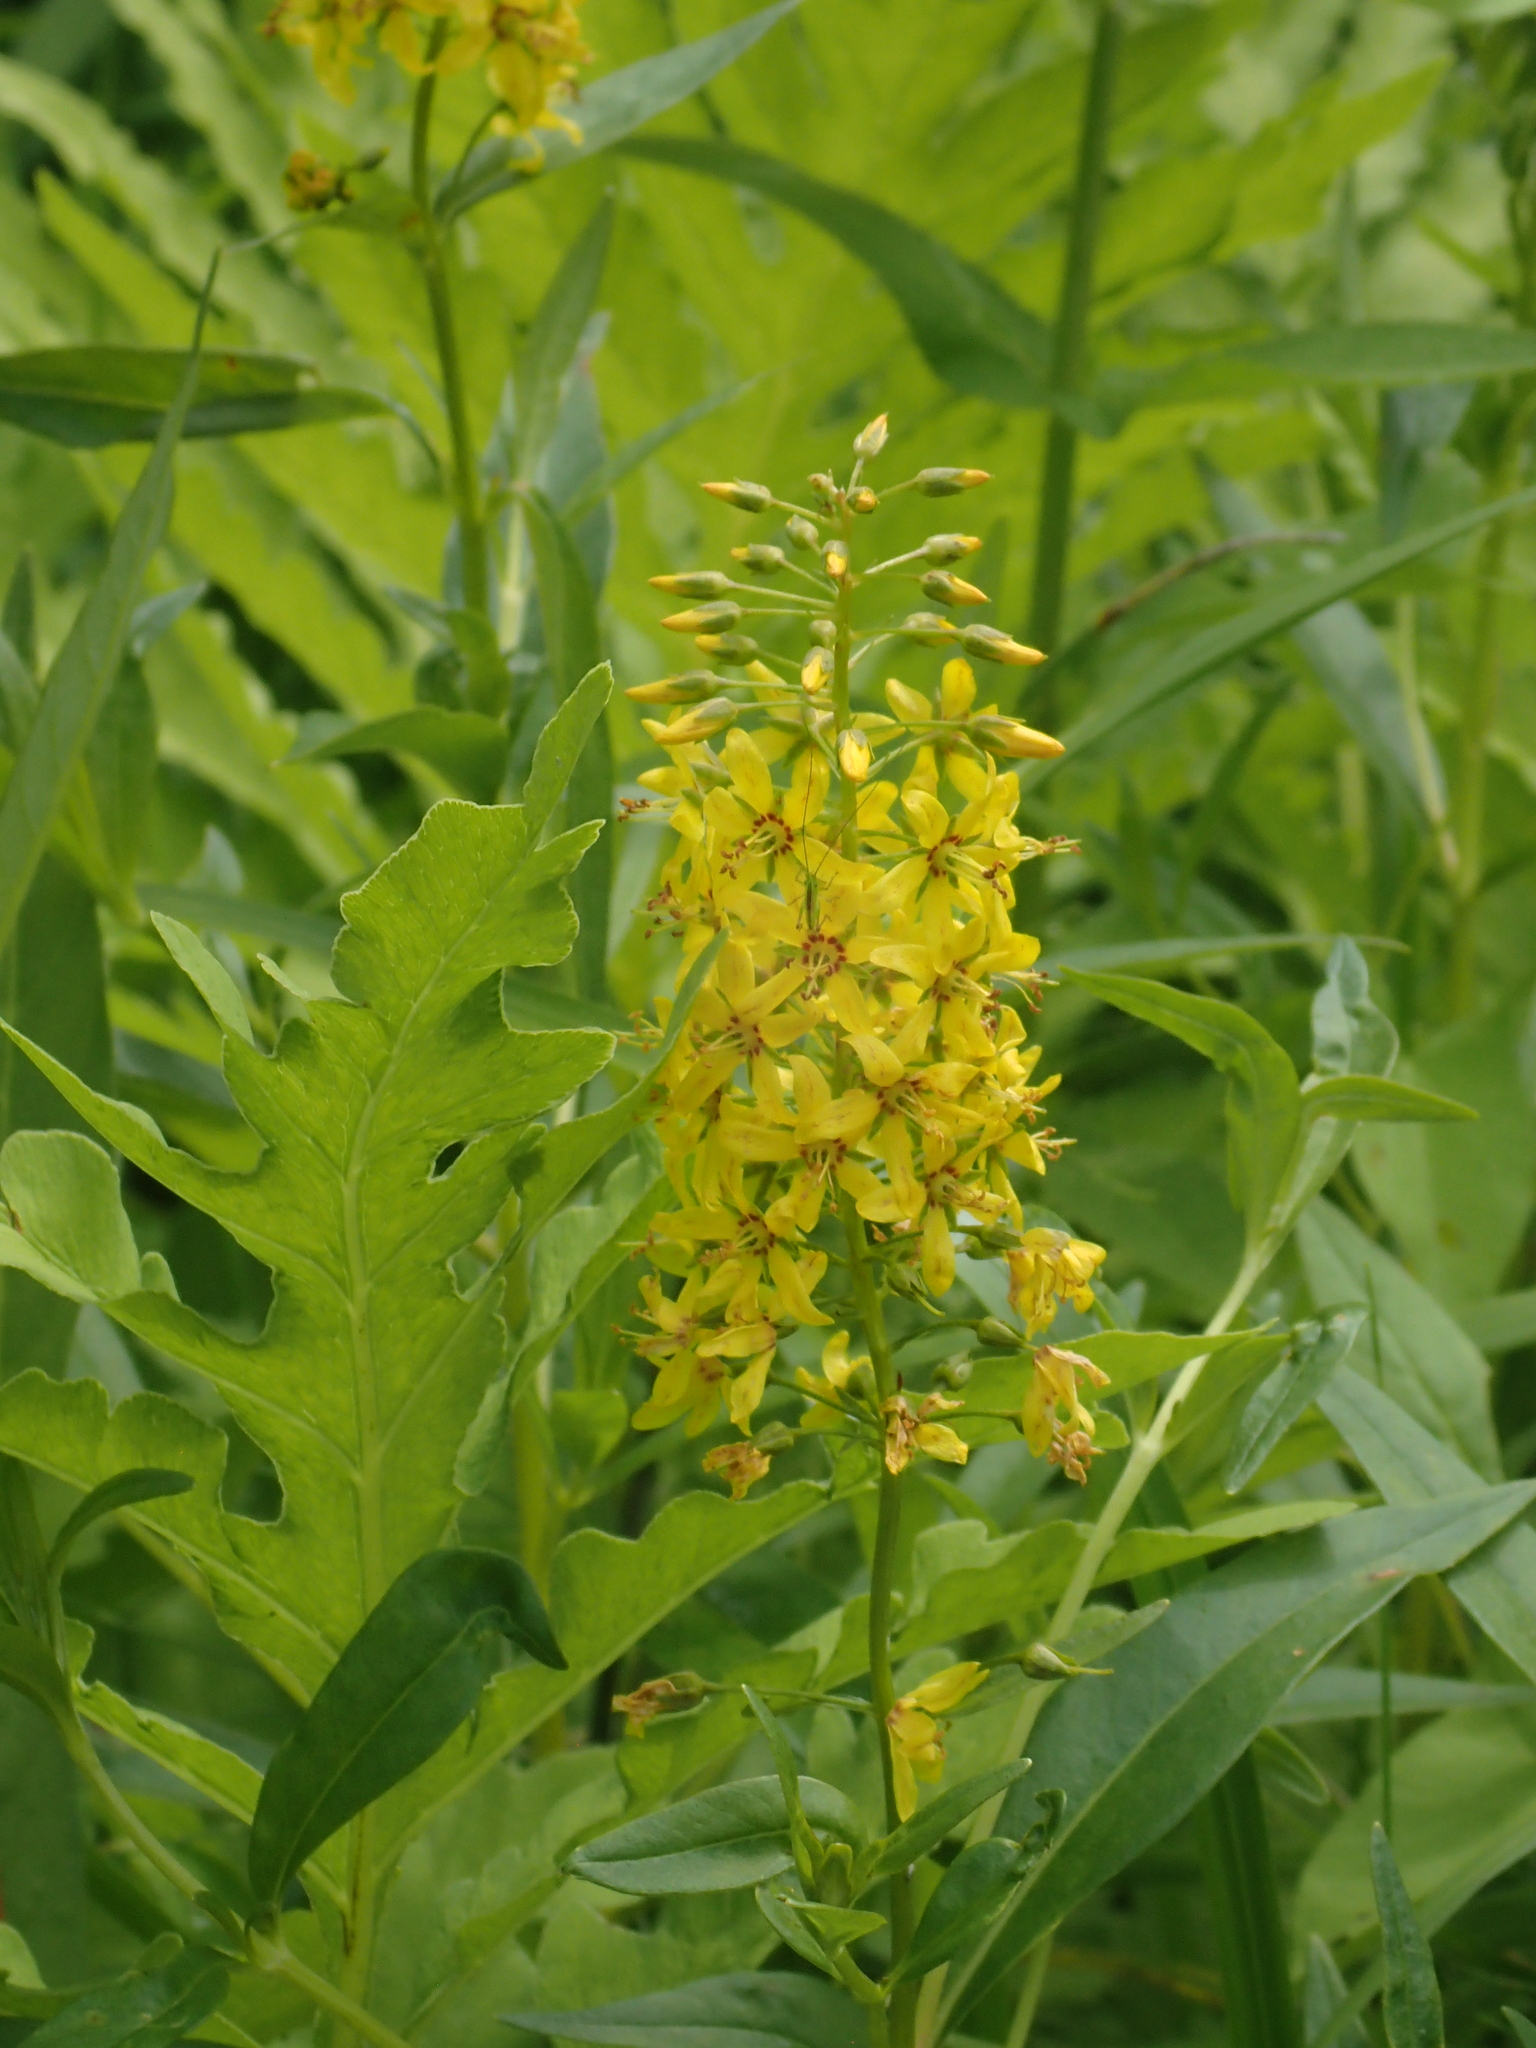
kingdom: Plantae
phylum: Tracheophyta
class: Magnoliopsida
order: Ericales
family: Primulaceae
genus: Lysimachia
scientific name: Lysimachia terrestris
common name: Lake loosestrife
